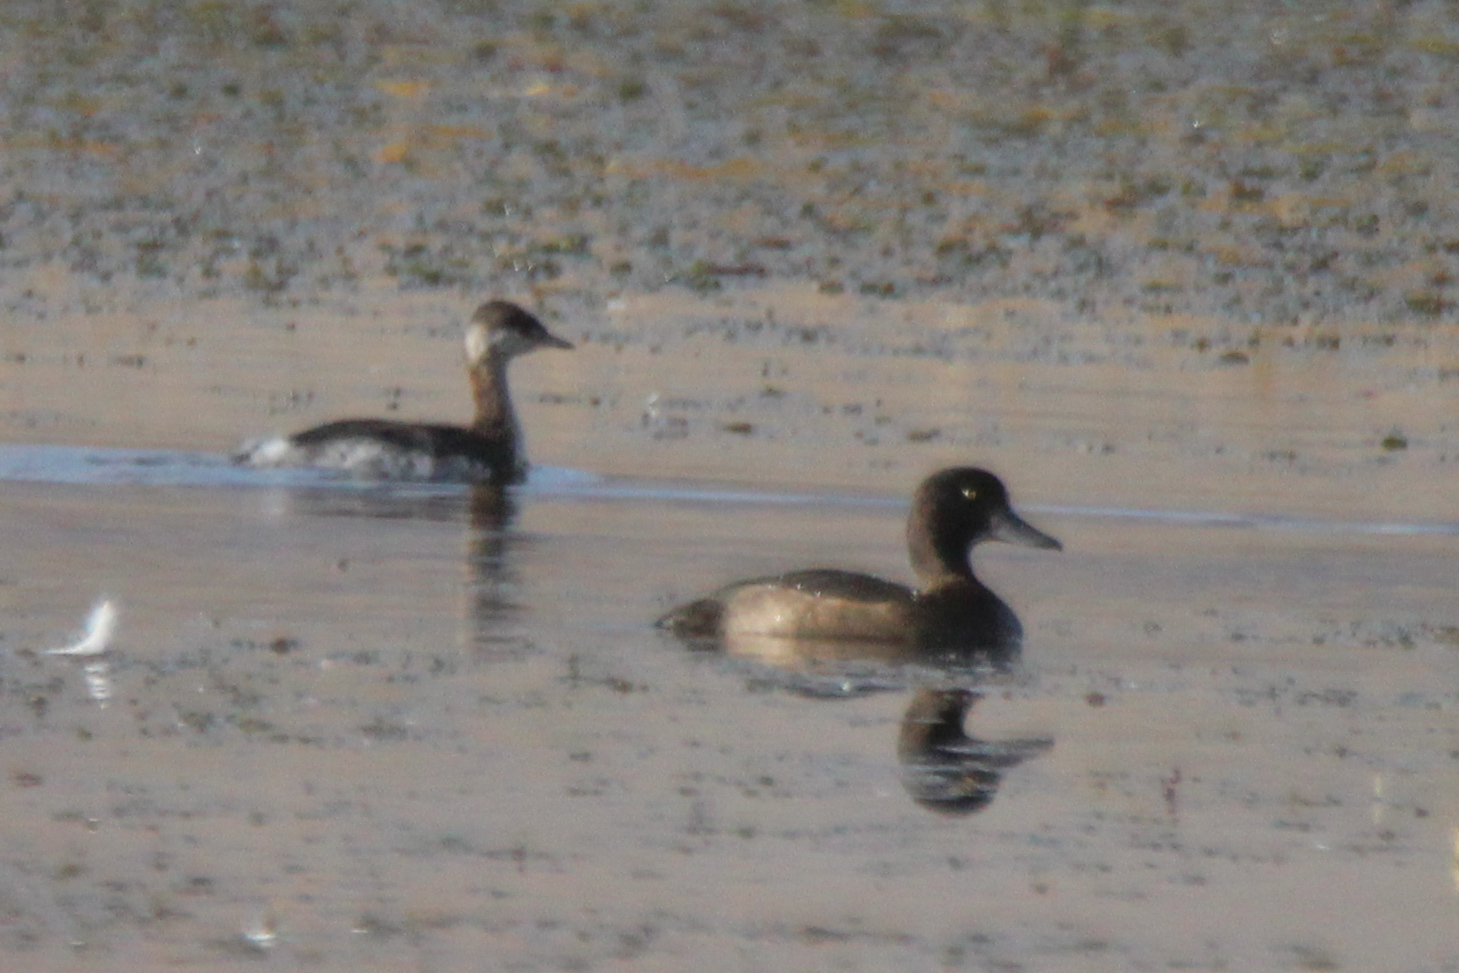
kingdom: Animalia
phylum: Chordata
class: Aves
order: Podicipediformes
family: Podicipedidae
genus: Podiceps
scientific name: Podiceps auritus
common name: Horned grebe
